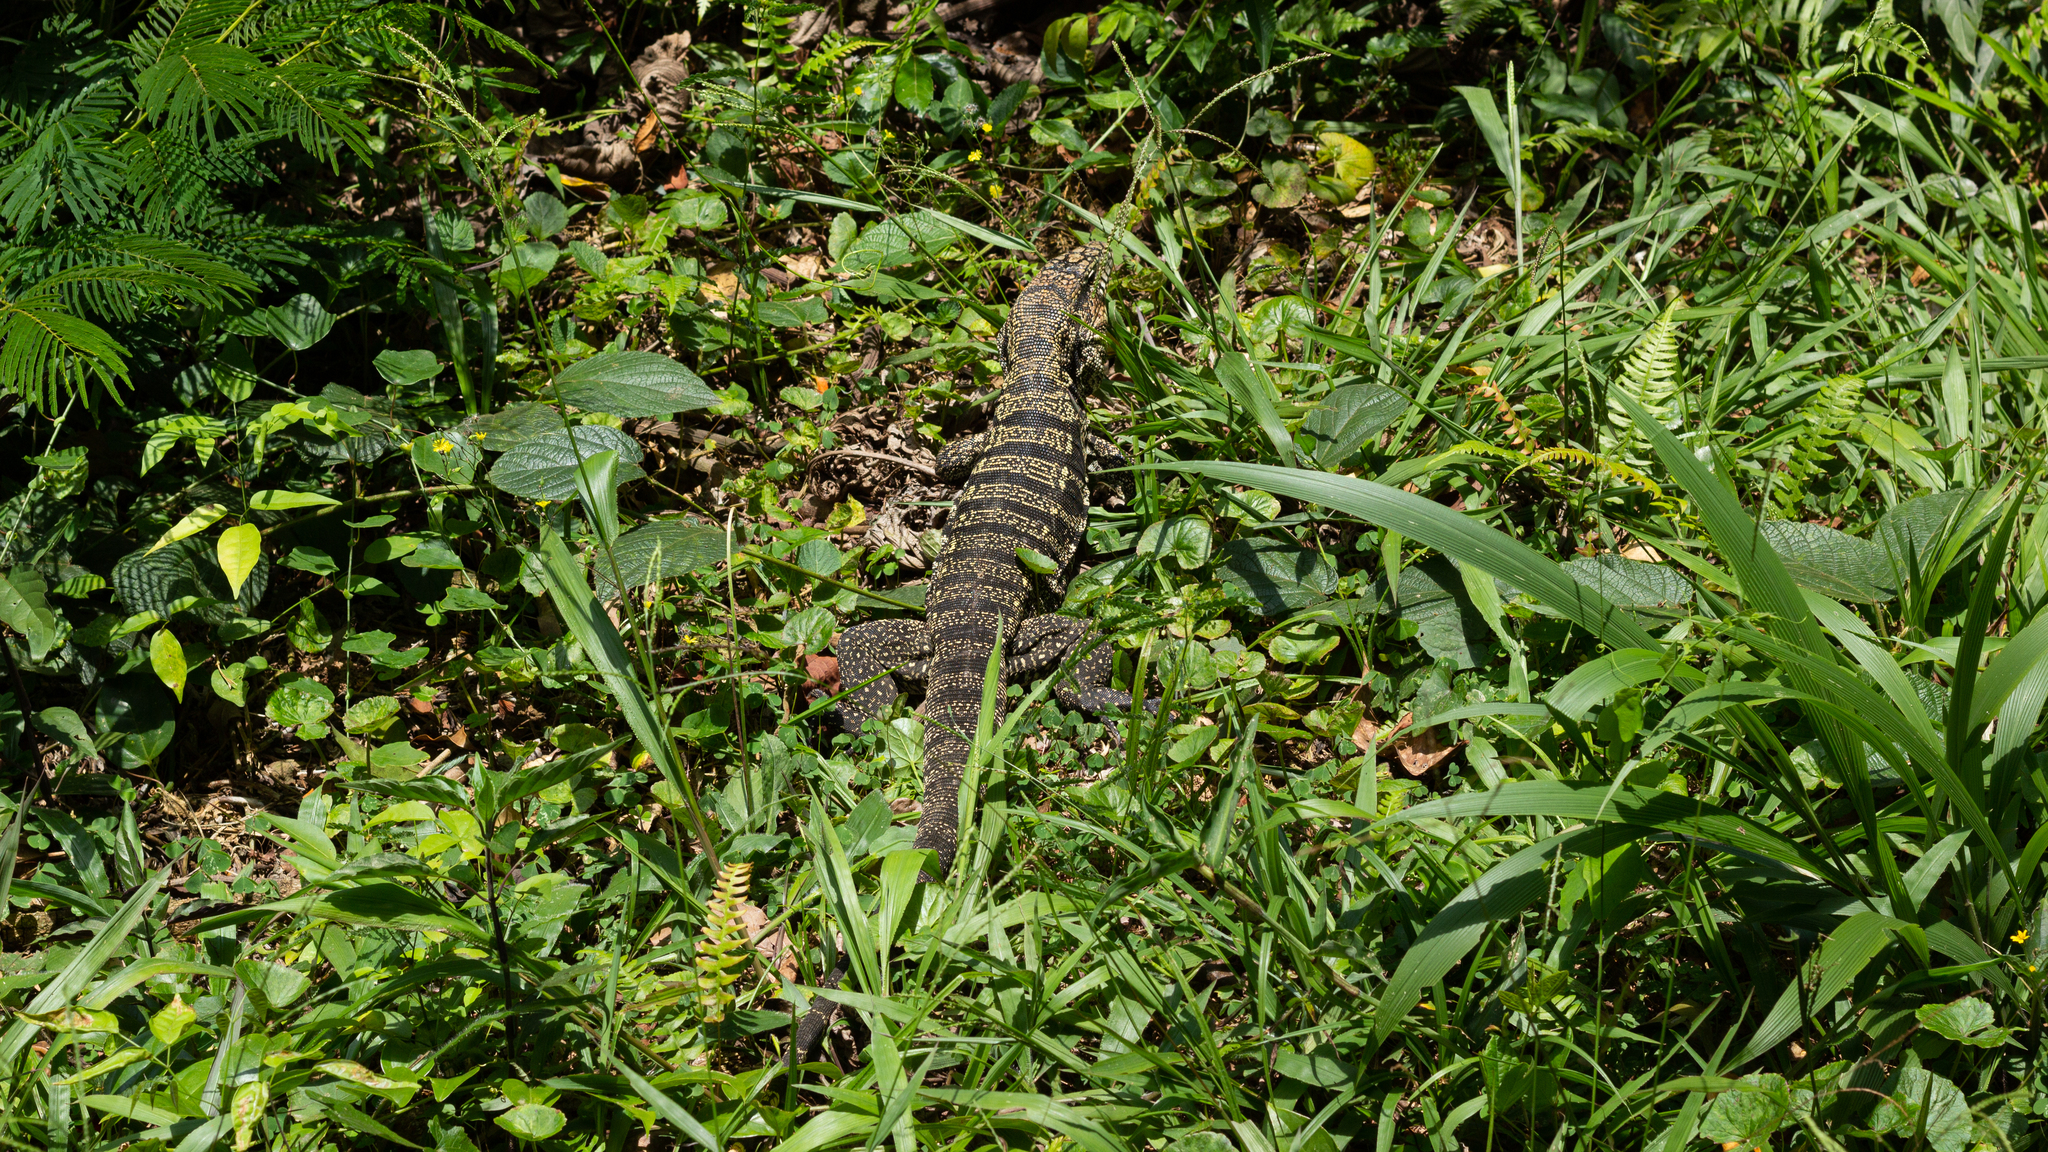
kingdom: Animalia
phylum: Chordata
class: Squamata
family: Teiidae
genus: Salvator
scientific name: Salvator merianae
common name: Argentine black and white tegu
